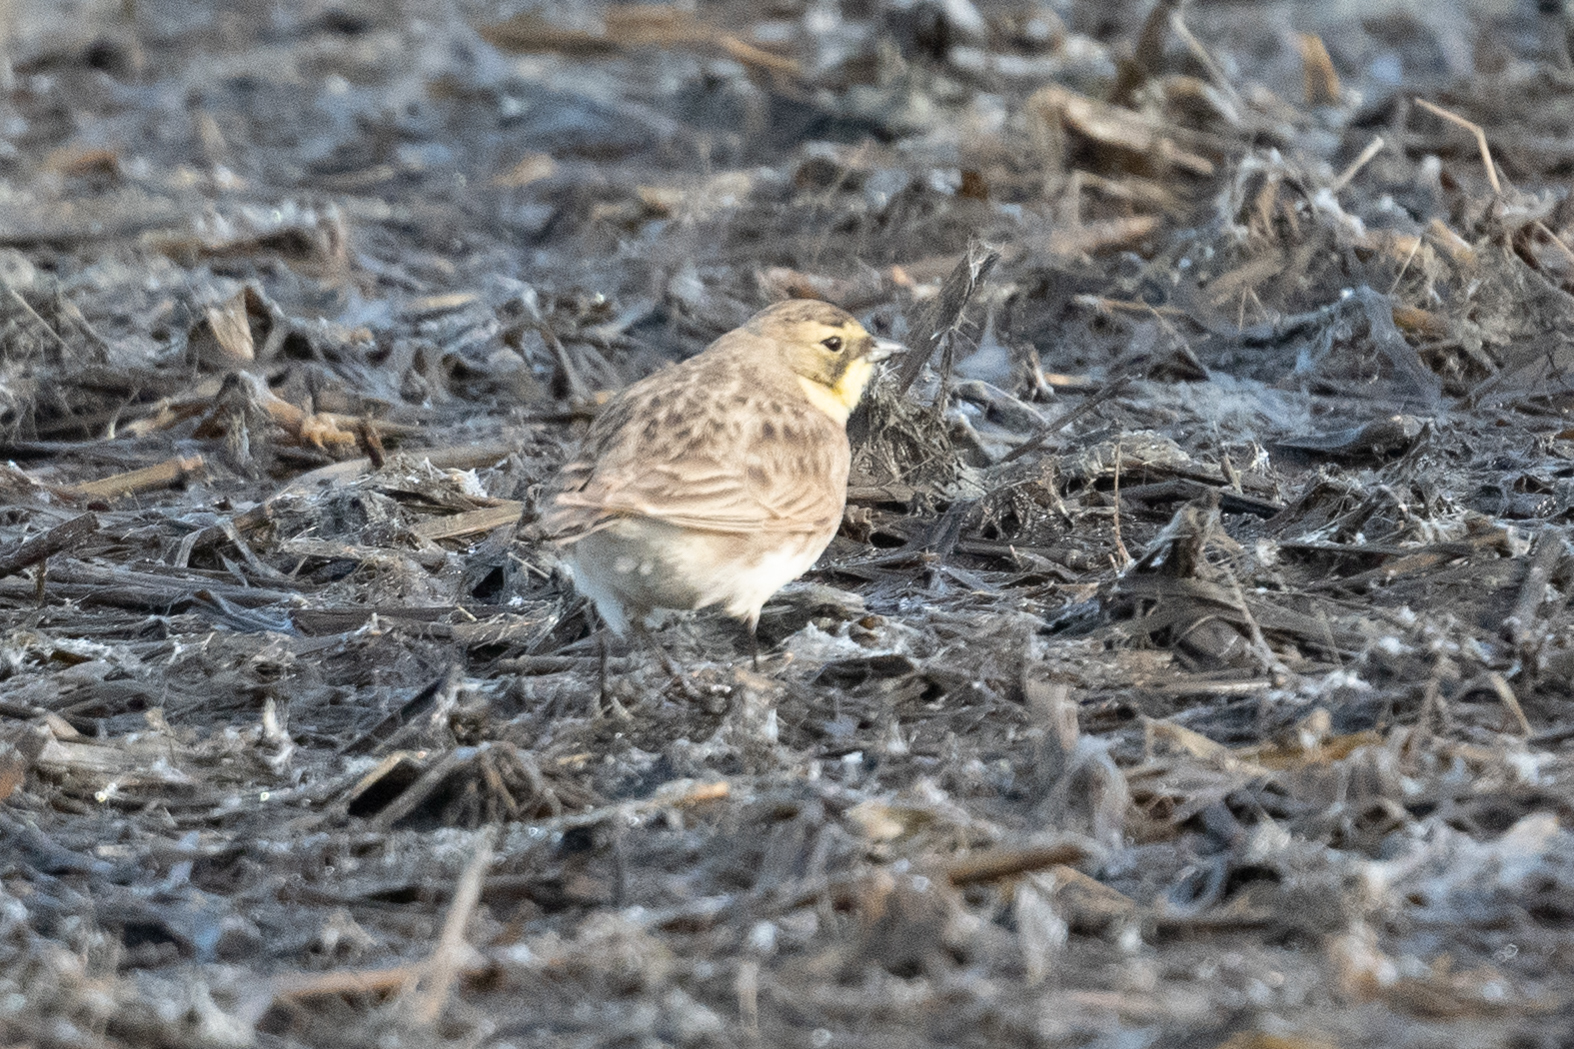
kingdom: Animalia
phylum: Chordata
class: Aves
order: Passeriformes
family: Alaudidae
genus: Eremophila
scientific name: Eremophila alpestris
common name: Horned lark
